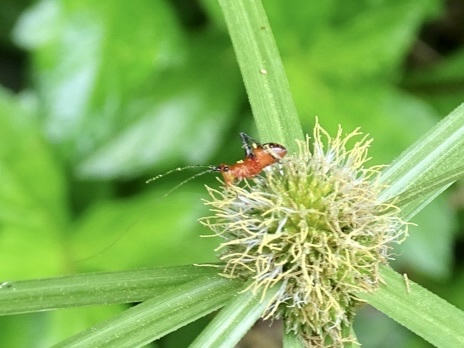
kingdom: Animalia
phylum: Arthropoda
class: Insecta
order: Orthoptera
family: Tettigoniidae
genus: Conocephalus
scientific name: Conocephalus melaenus
